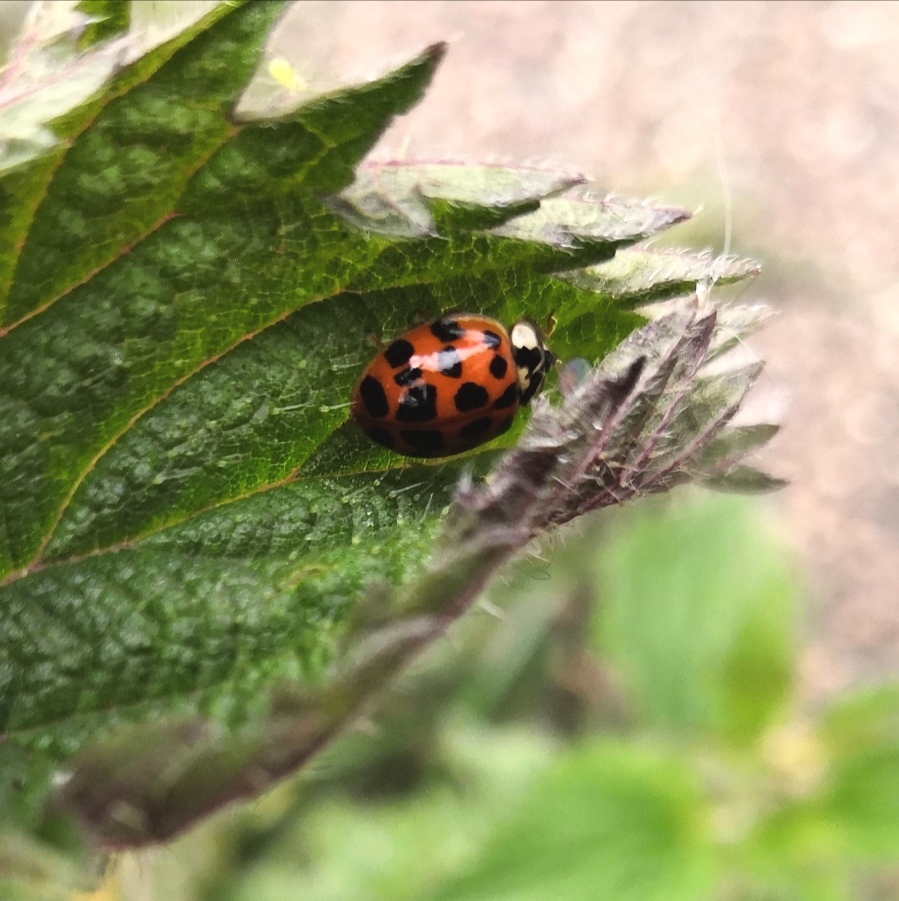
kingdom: Animalia
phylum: Arthropoda
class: Insecta
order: Coleoptera
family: Coccinellidae
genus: Harmonia
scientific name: Harmonia axyridis
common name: Harlequin ladybird
